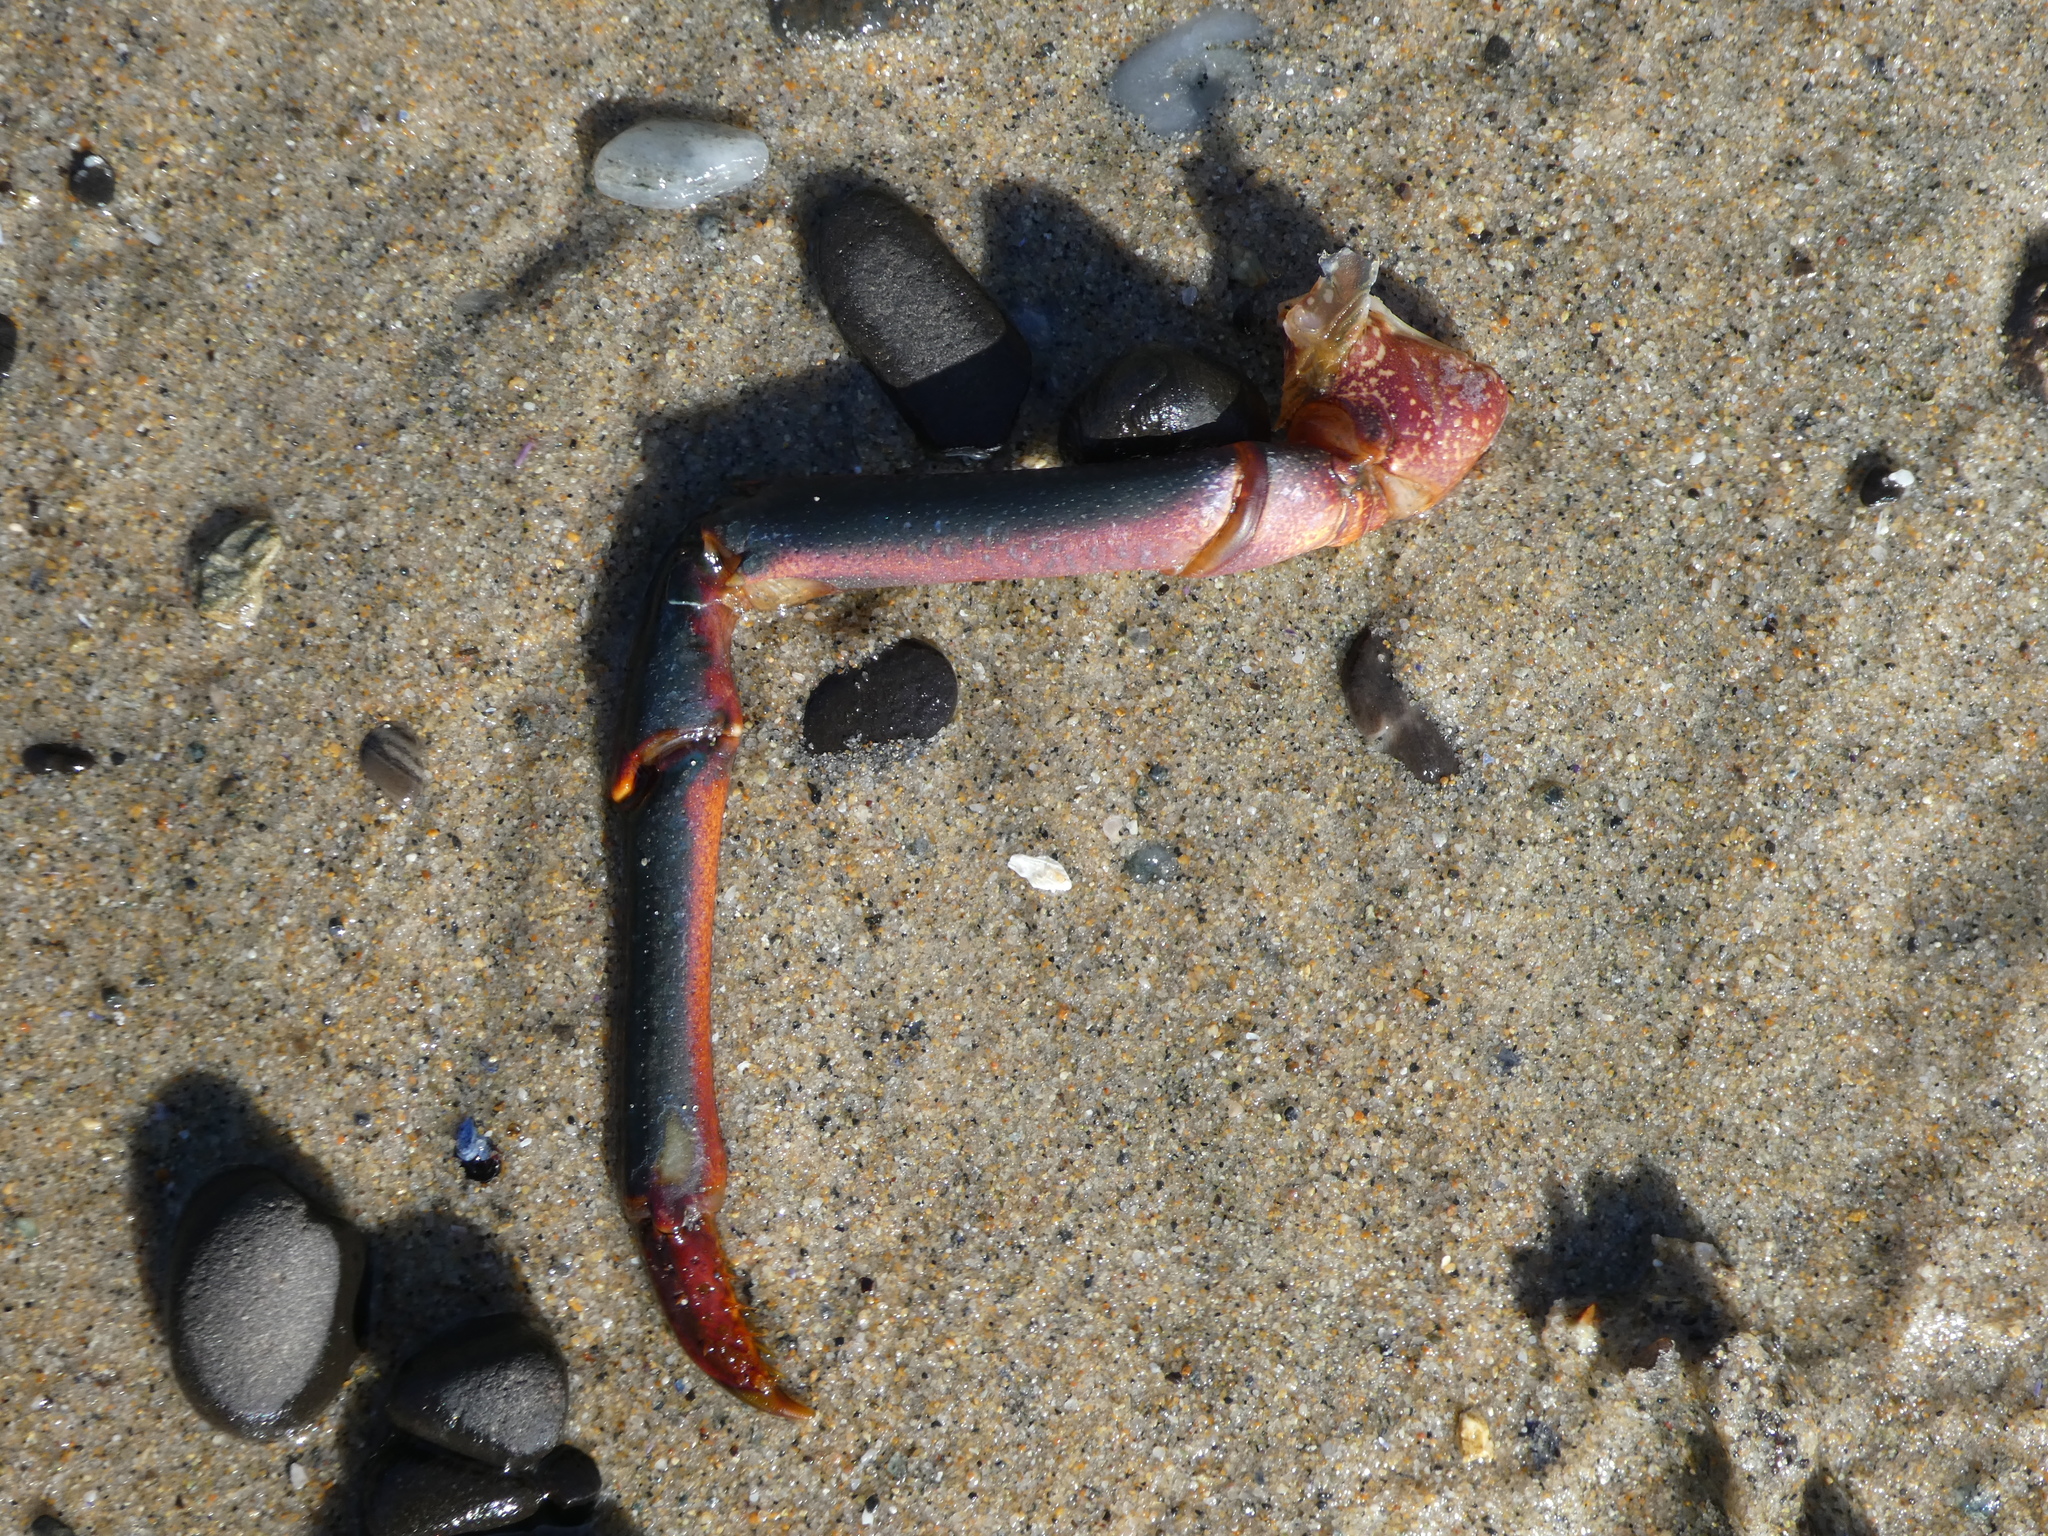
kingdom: Animalia
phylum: Arthropoda
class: Malacostraca
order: Decapoda
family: Palinuridae
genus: Panulirus
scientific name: Panulirus interruptus
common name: California spiny lobster
